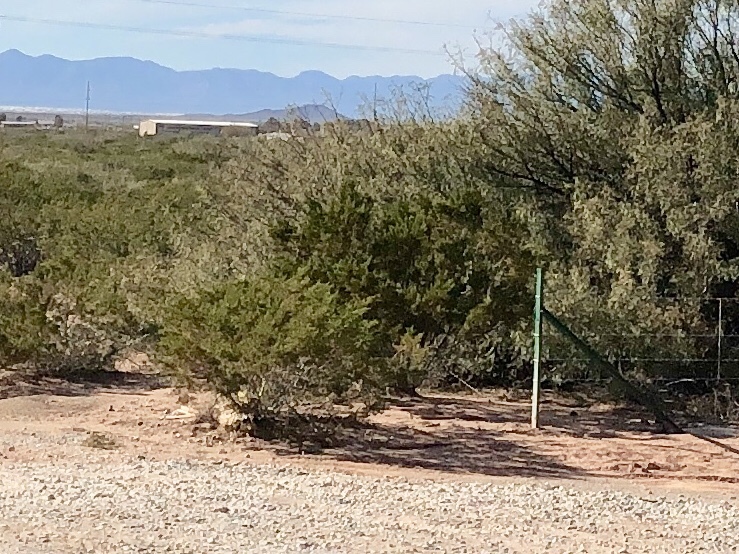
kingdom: Plantae
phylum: Tracheophyta
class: Magnoliopsida
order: Zygophyllales
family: Zygophyllaceae
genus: Larrea
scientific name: Larrea tridentata
